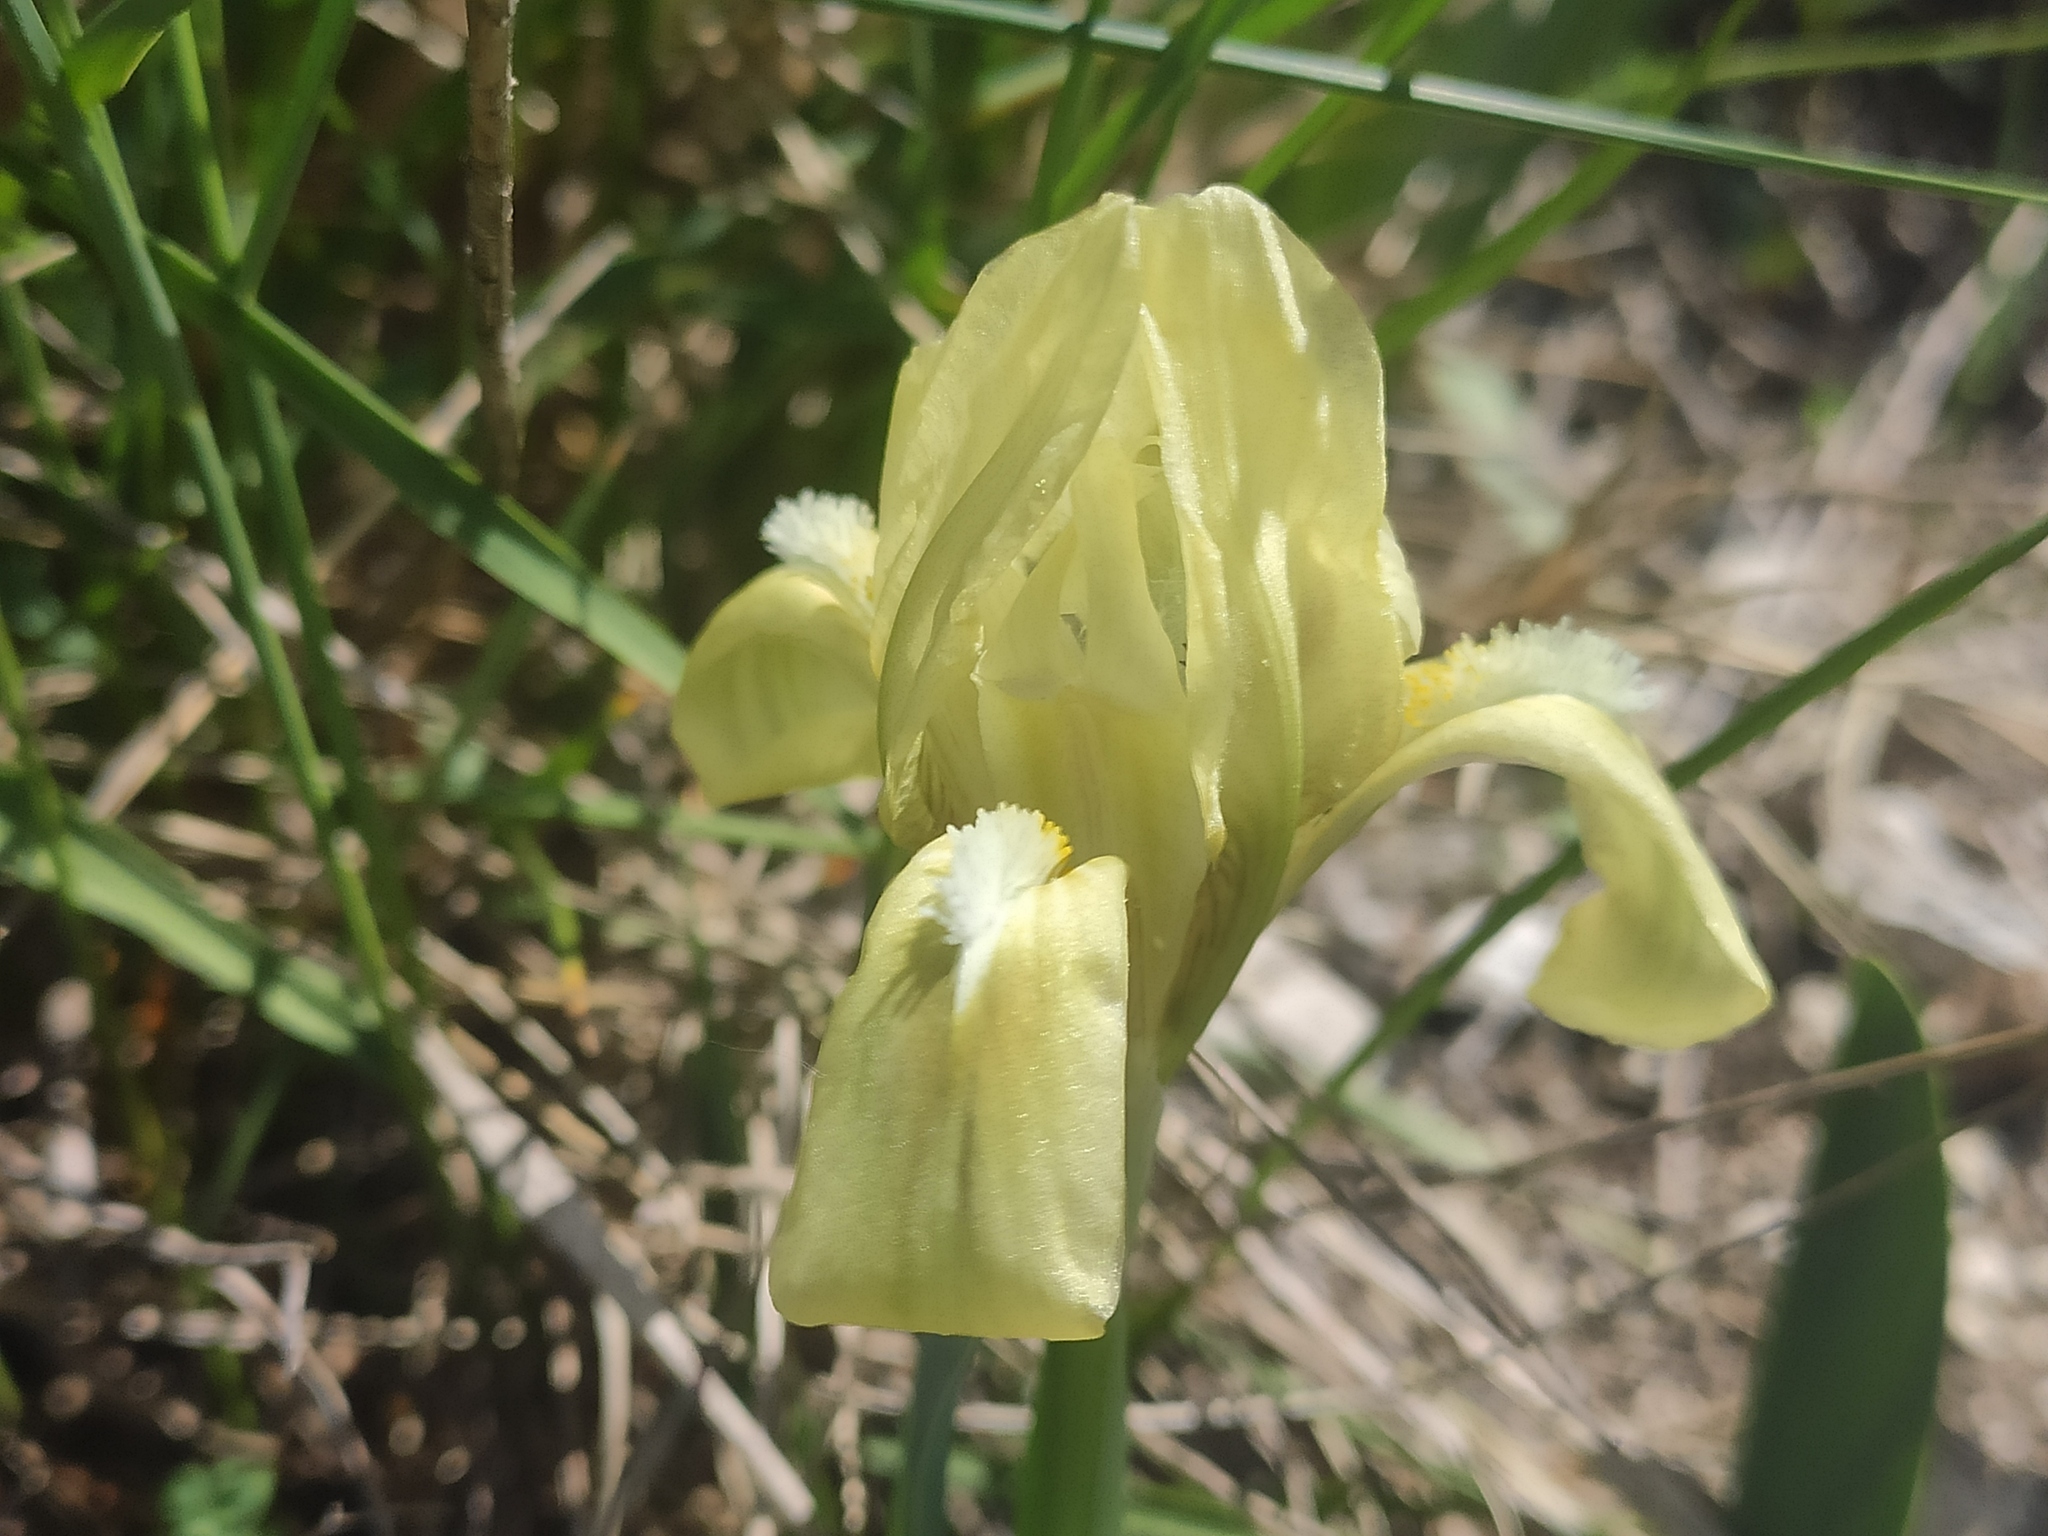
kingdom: Plantae
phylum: Tracheophyta
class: Liliopsida
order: Asparagales
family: Iridaceae
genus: Iris
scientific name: Iris pumila
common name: Dwarf iris
